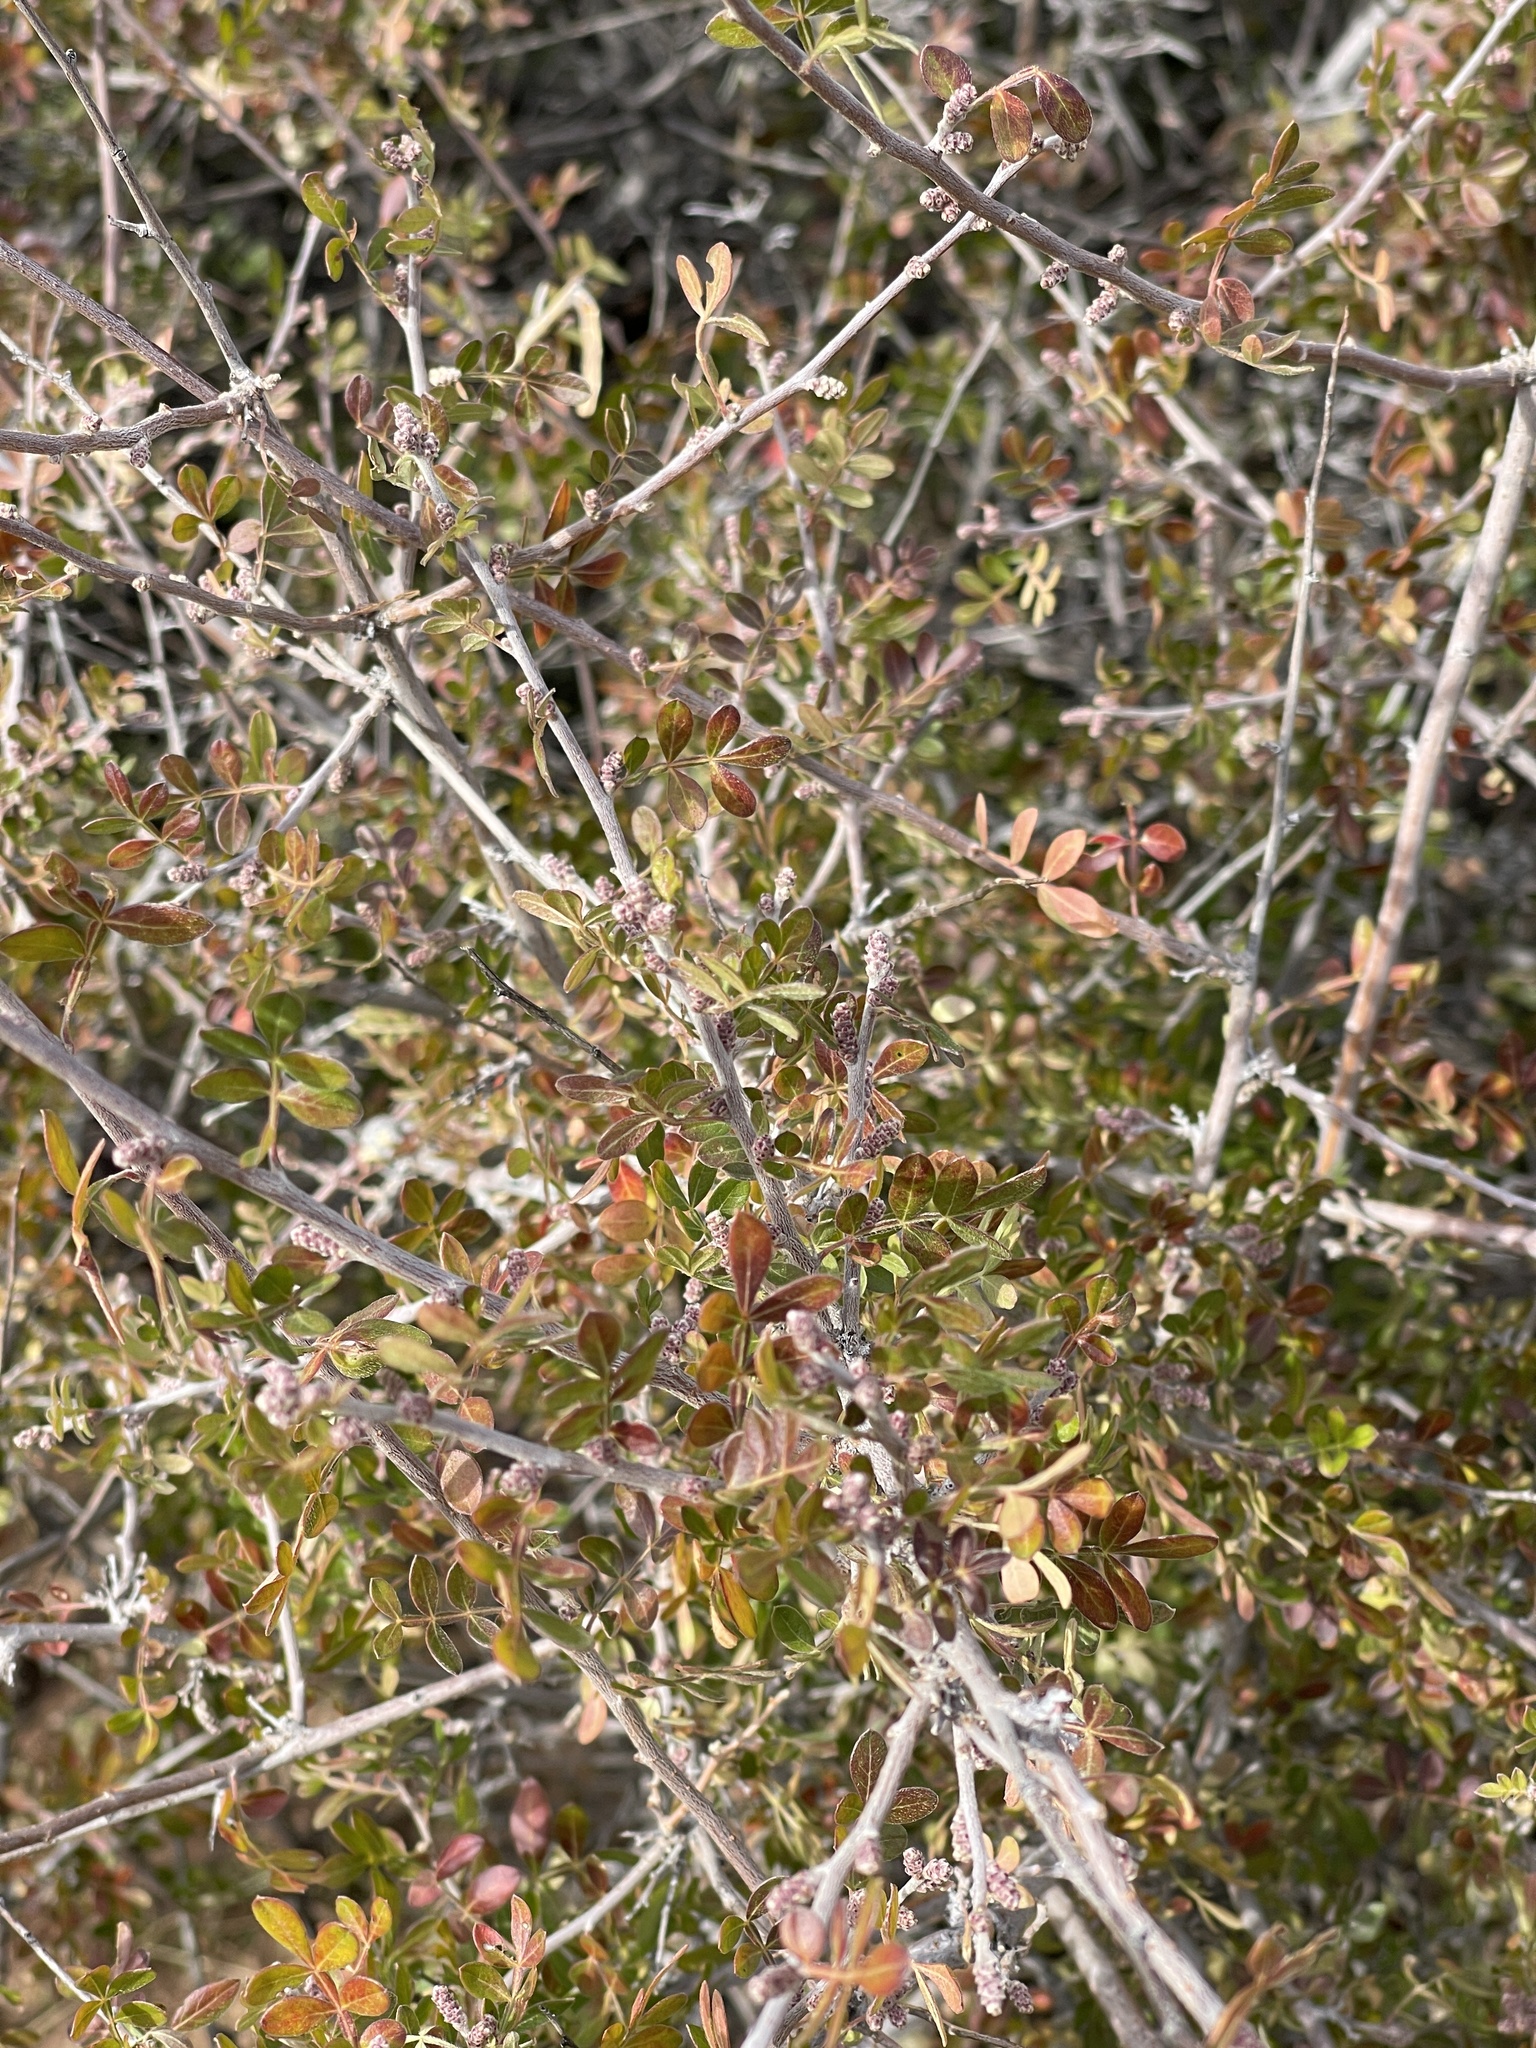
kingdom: Plantae
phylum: Tracheophyta
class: Magnoliopsida
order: Sapindales
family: Anacardiaceae
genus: Rhus
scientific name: Rhus microphylla
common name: Desert sumac
